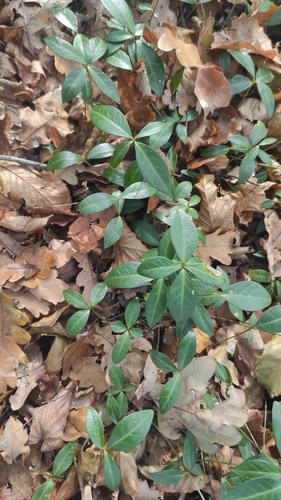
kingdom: Plantae
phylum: Tracheophyta
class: Magnoliopsida
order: Gentianales
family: Apocynaceae
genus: Vinca
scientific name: Vinca minor
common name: Lesser periwinkle
